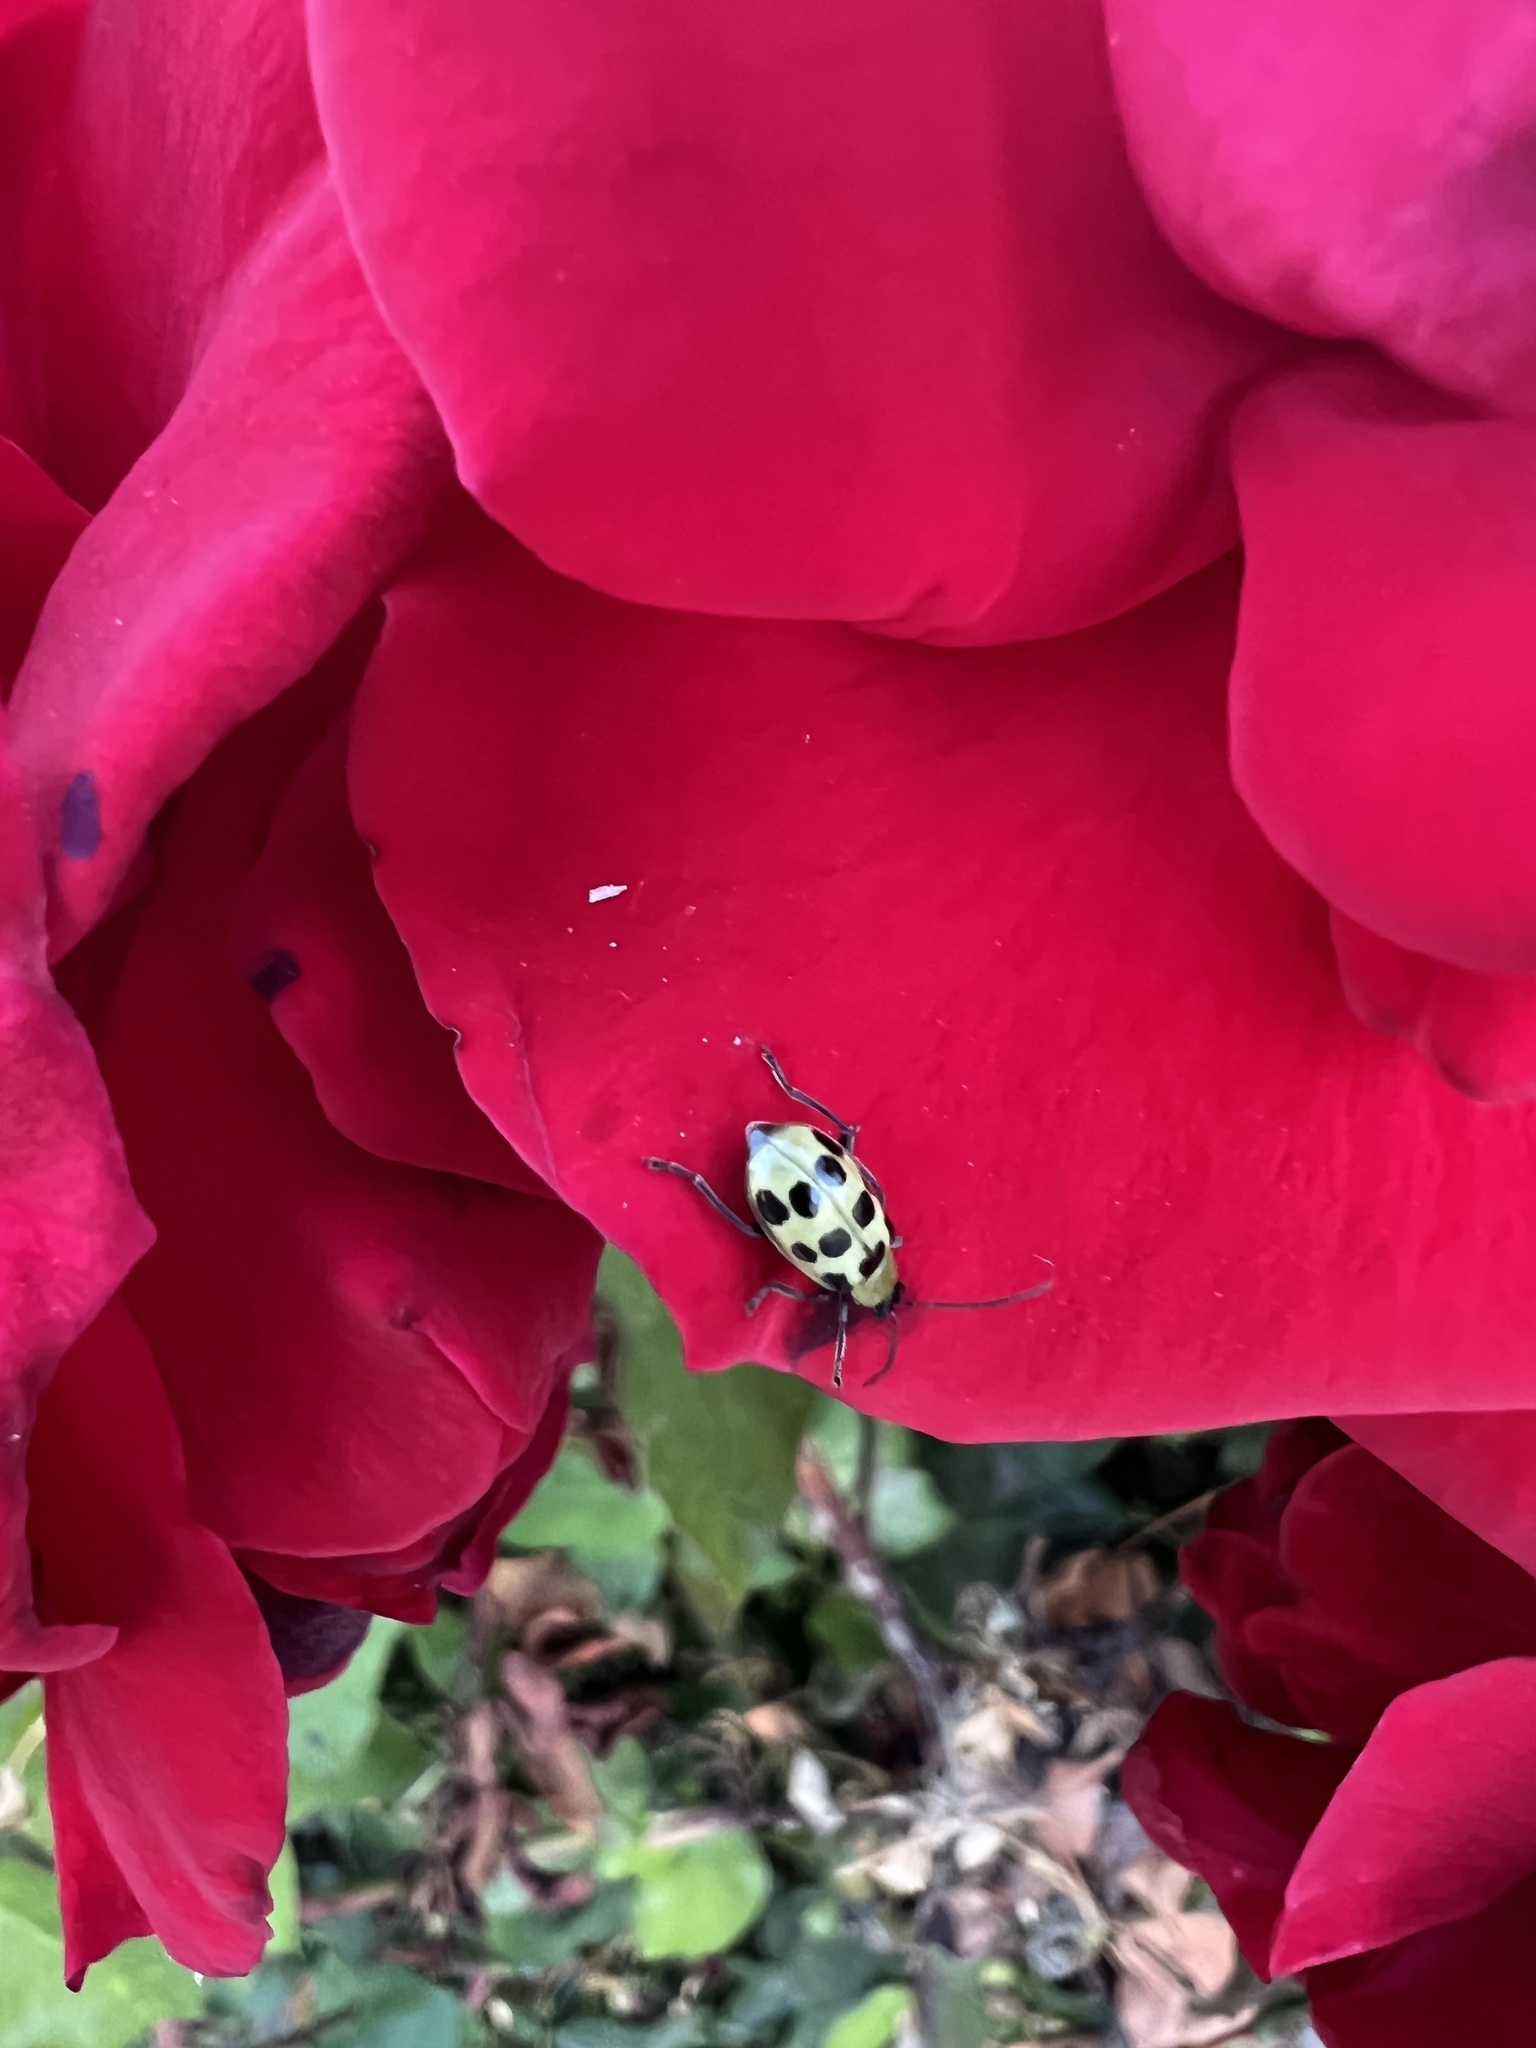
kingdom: Animalia
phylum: Arthropoda
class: Insecta
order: Coleoptera
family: Chrysomelidae
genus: Diabrotica
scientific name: Diabrotica undecimpunctata
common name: Spotted cucumber beetle
